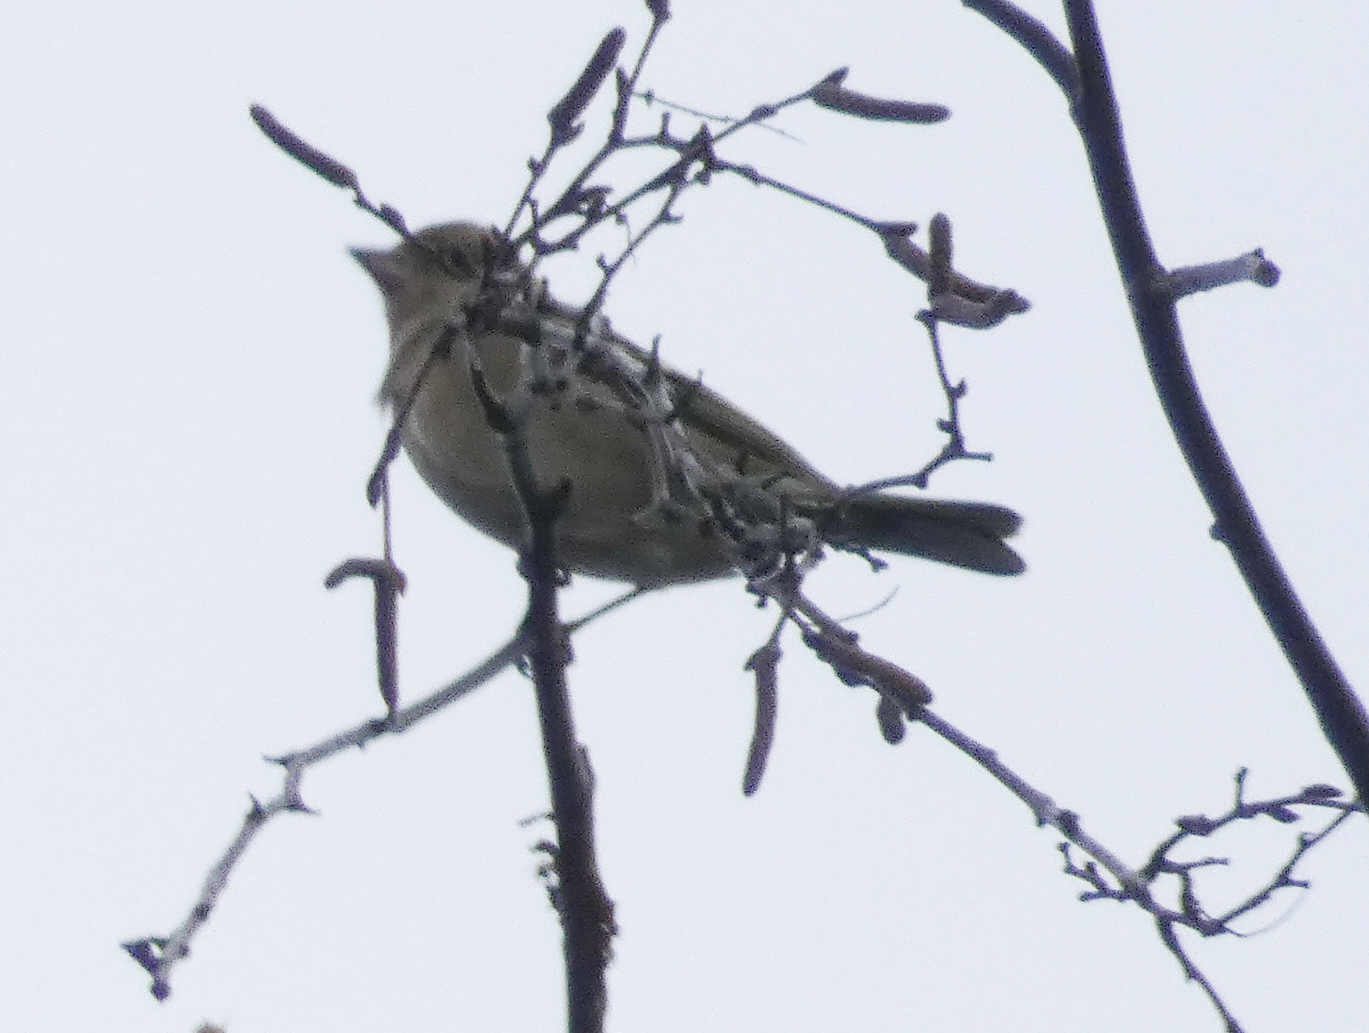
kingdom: Animalia
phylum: Chordata
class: Aves
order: Passeriformes
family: Fringillidae
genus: Fringilla
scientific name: Fringilla coelebs
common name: Common chaffinch
